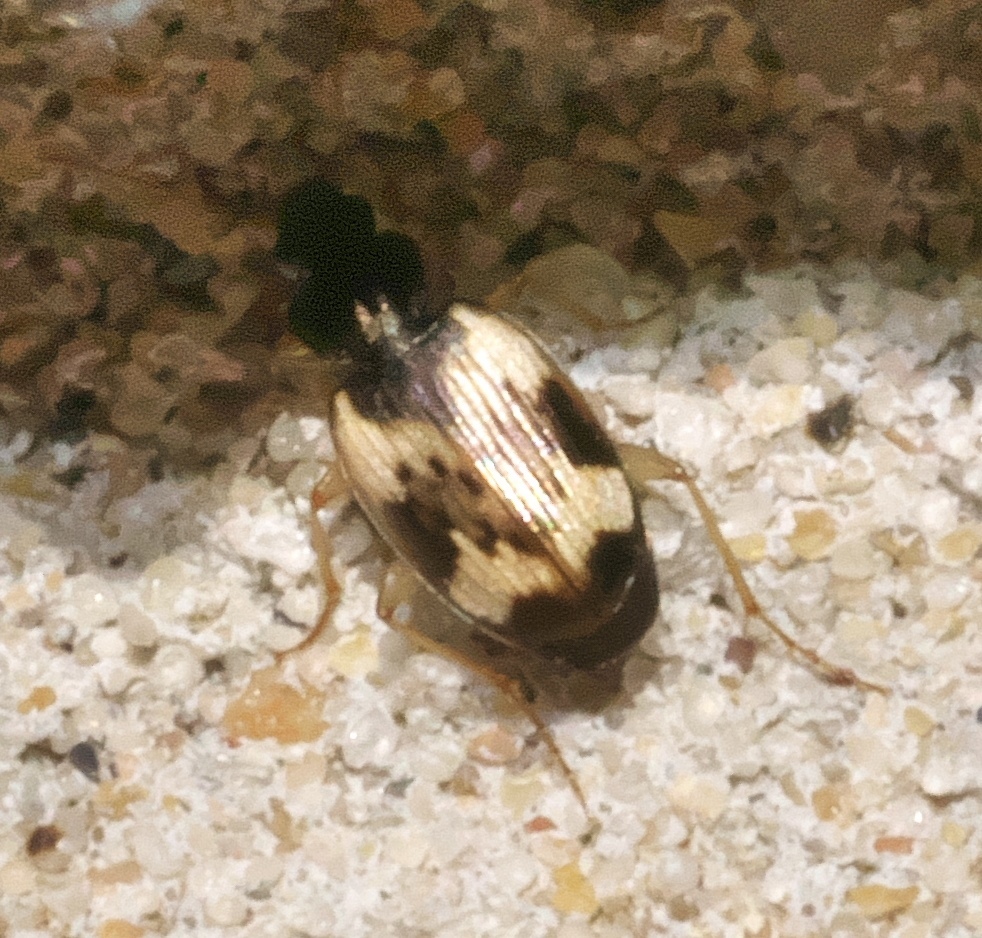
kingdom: Animalia
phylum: Arthropoda
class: Insecta
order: Coleoptera
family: Carabidae
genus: Tetragonoderus
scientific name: Tetragonoderus fasciatus
